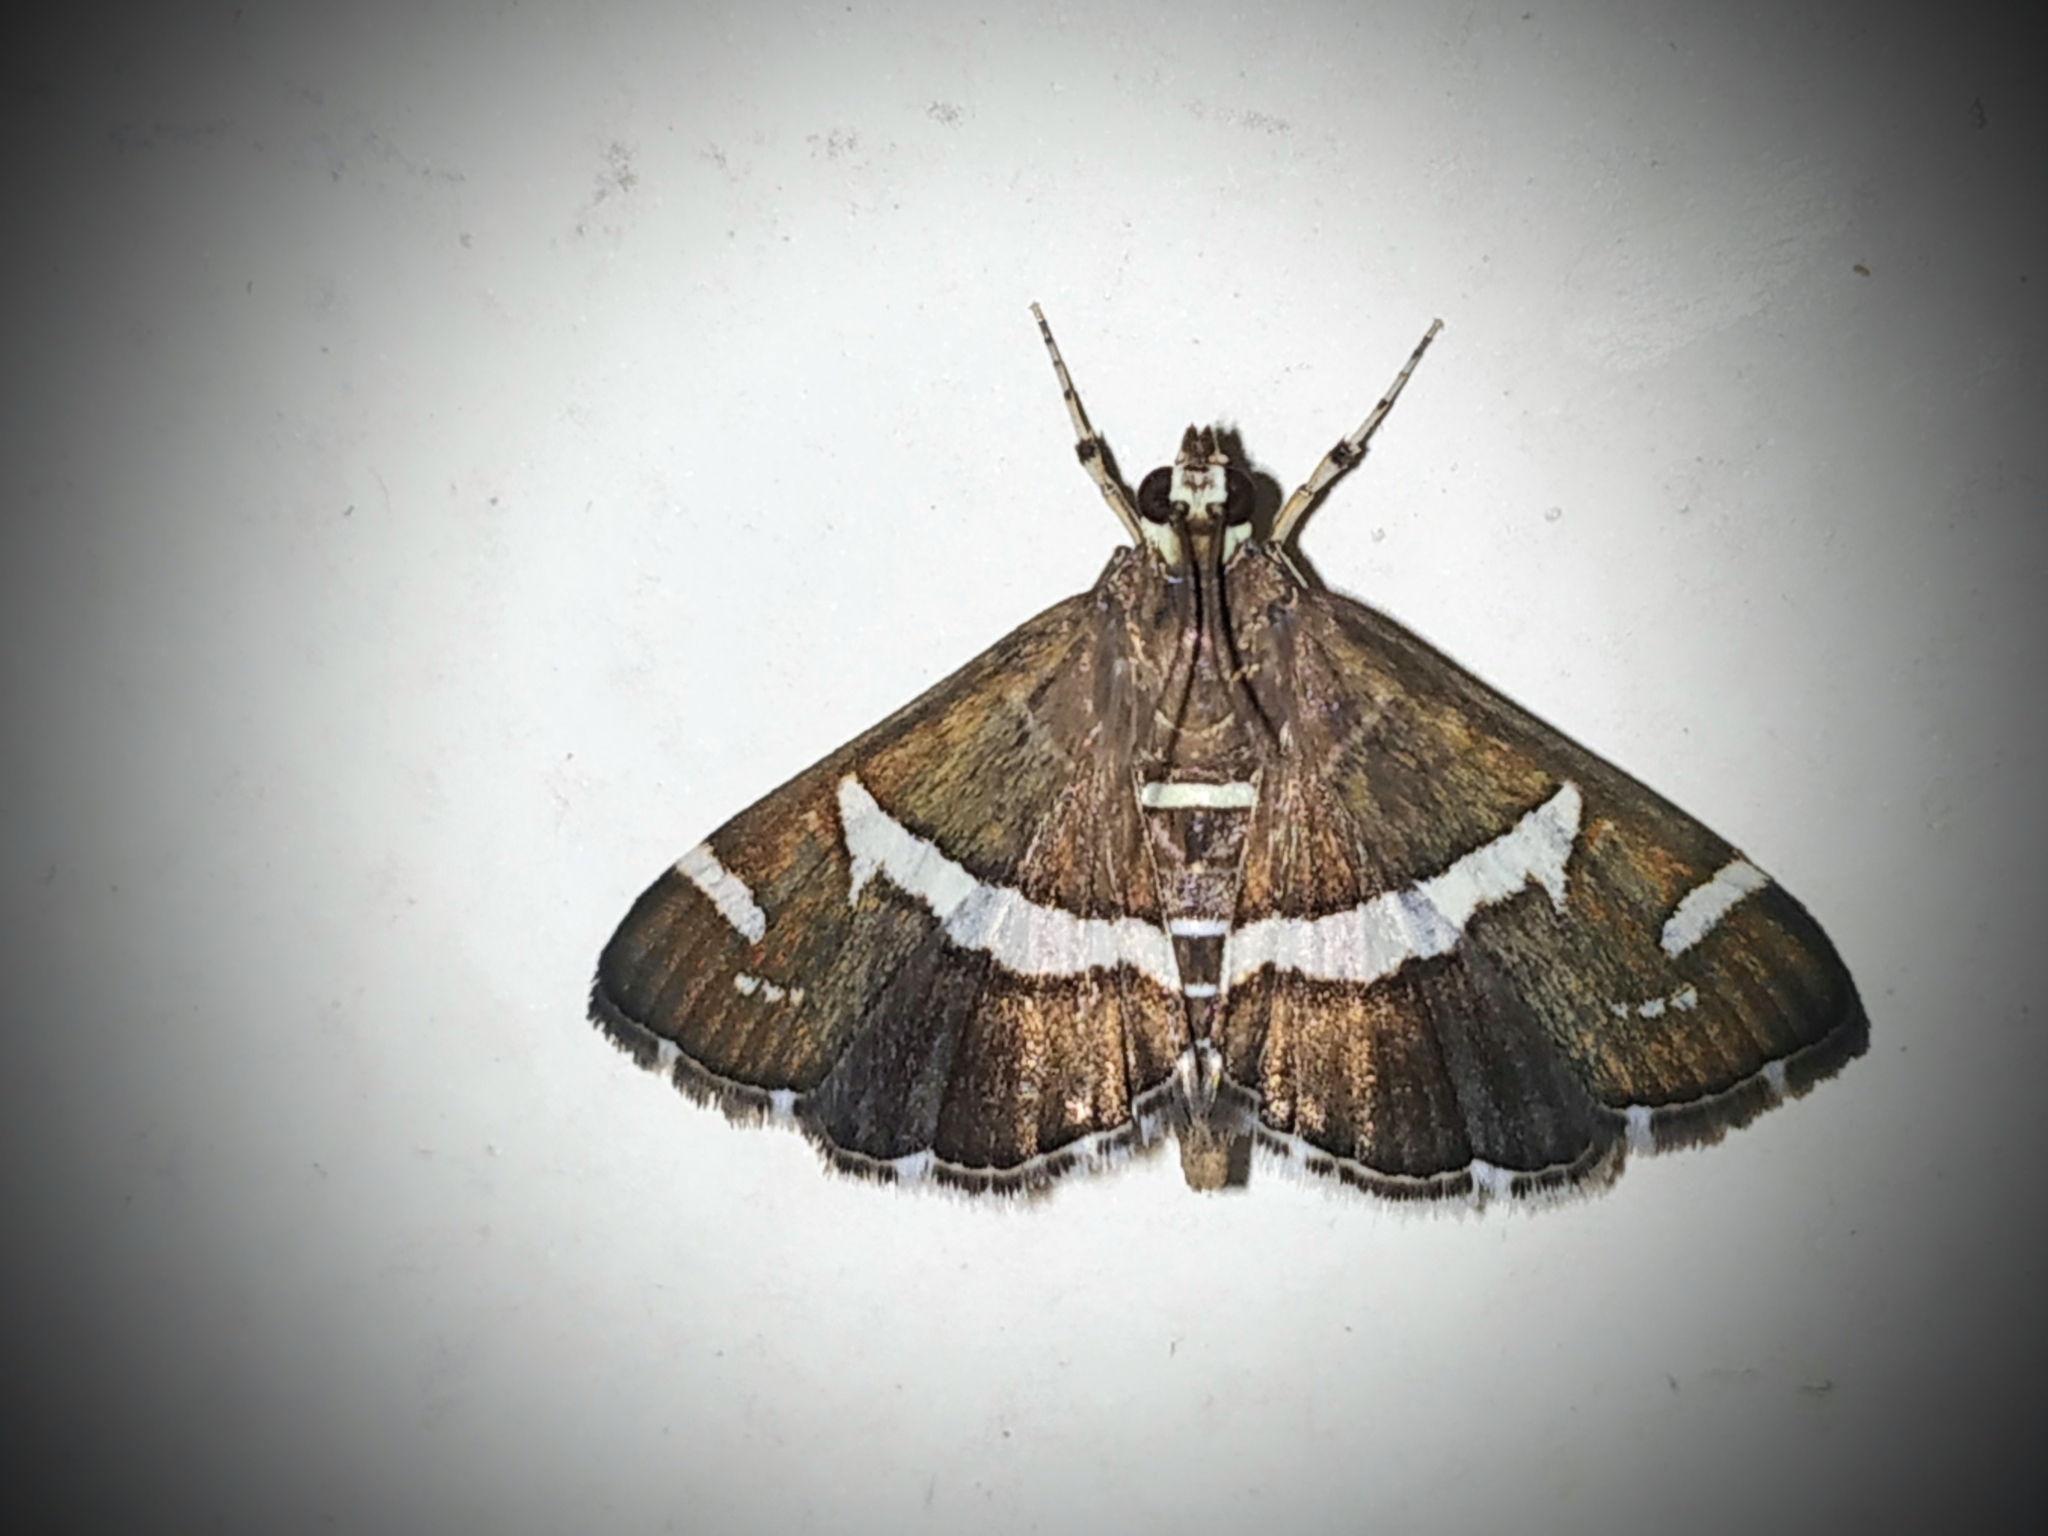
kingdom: Animalia
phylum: Arthropoda
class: Insecta
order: Lepidoptera
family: Crambidae
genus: Spoladea
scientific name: Spoladea recurvalis
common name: Beet webworm moth
